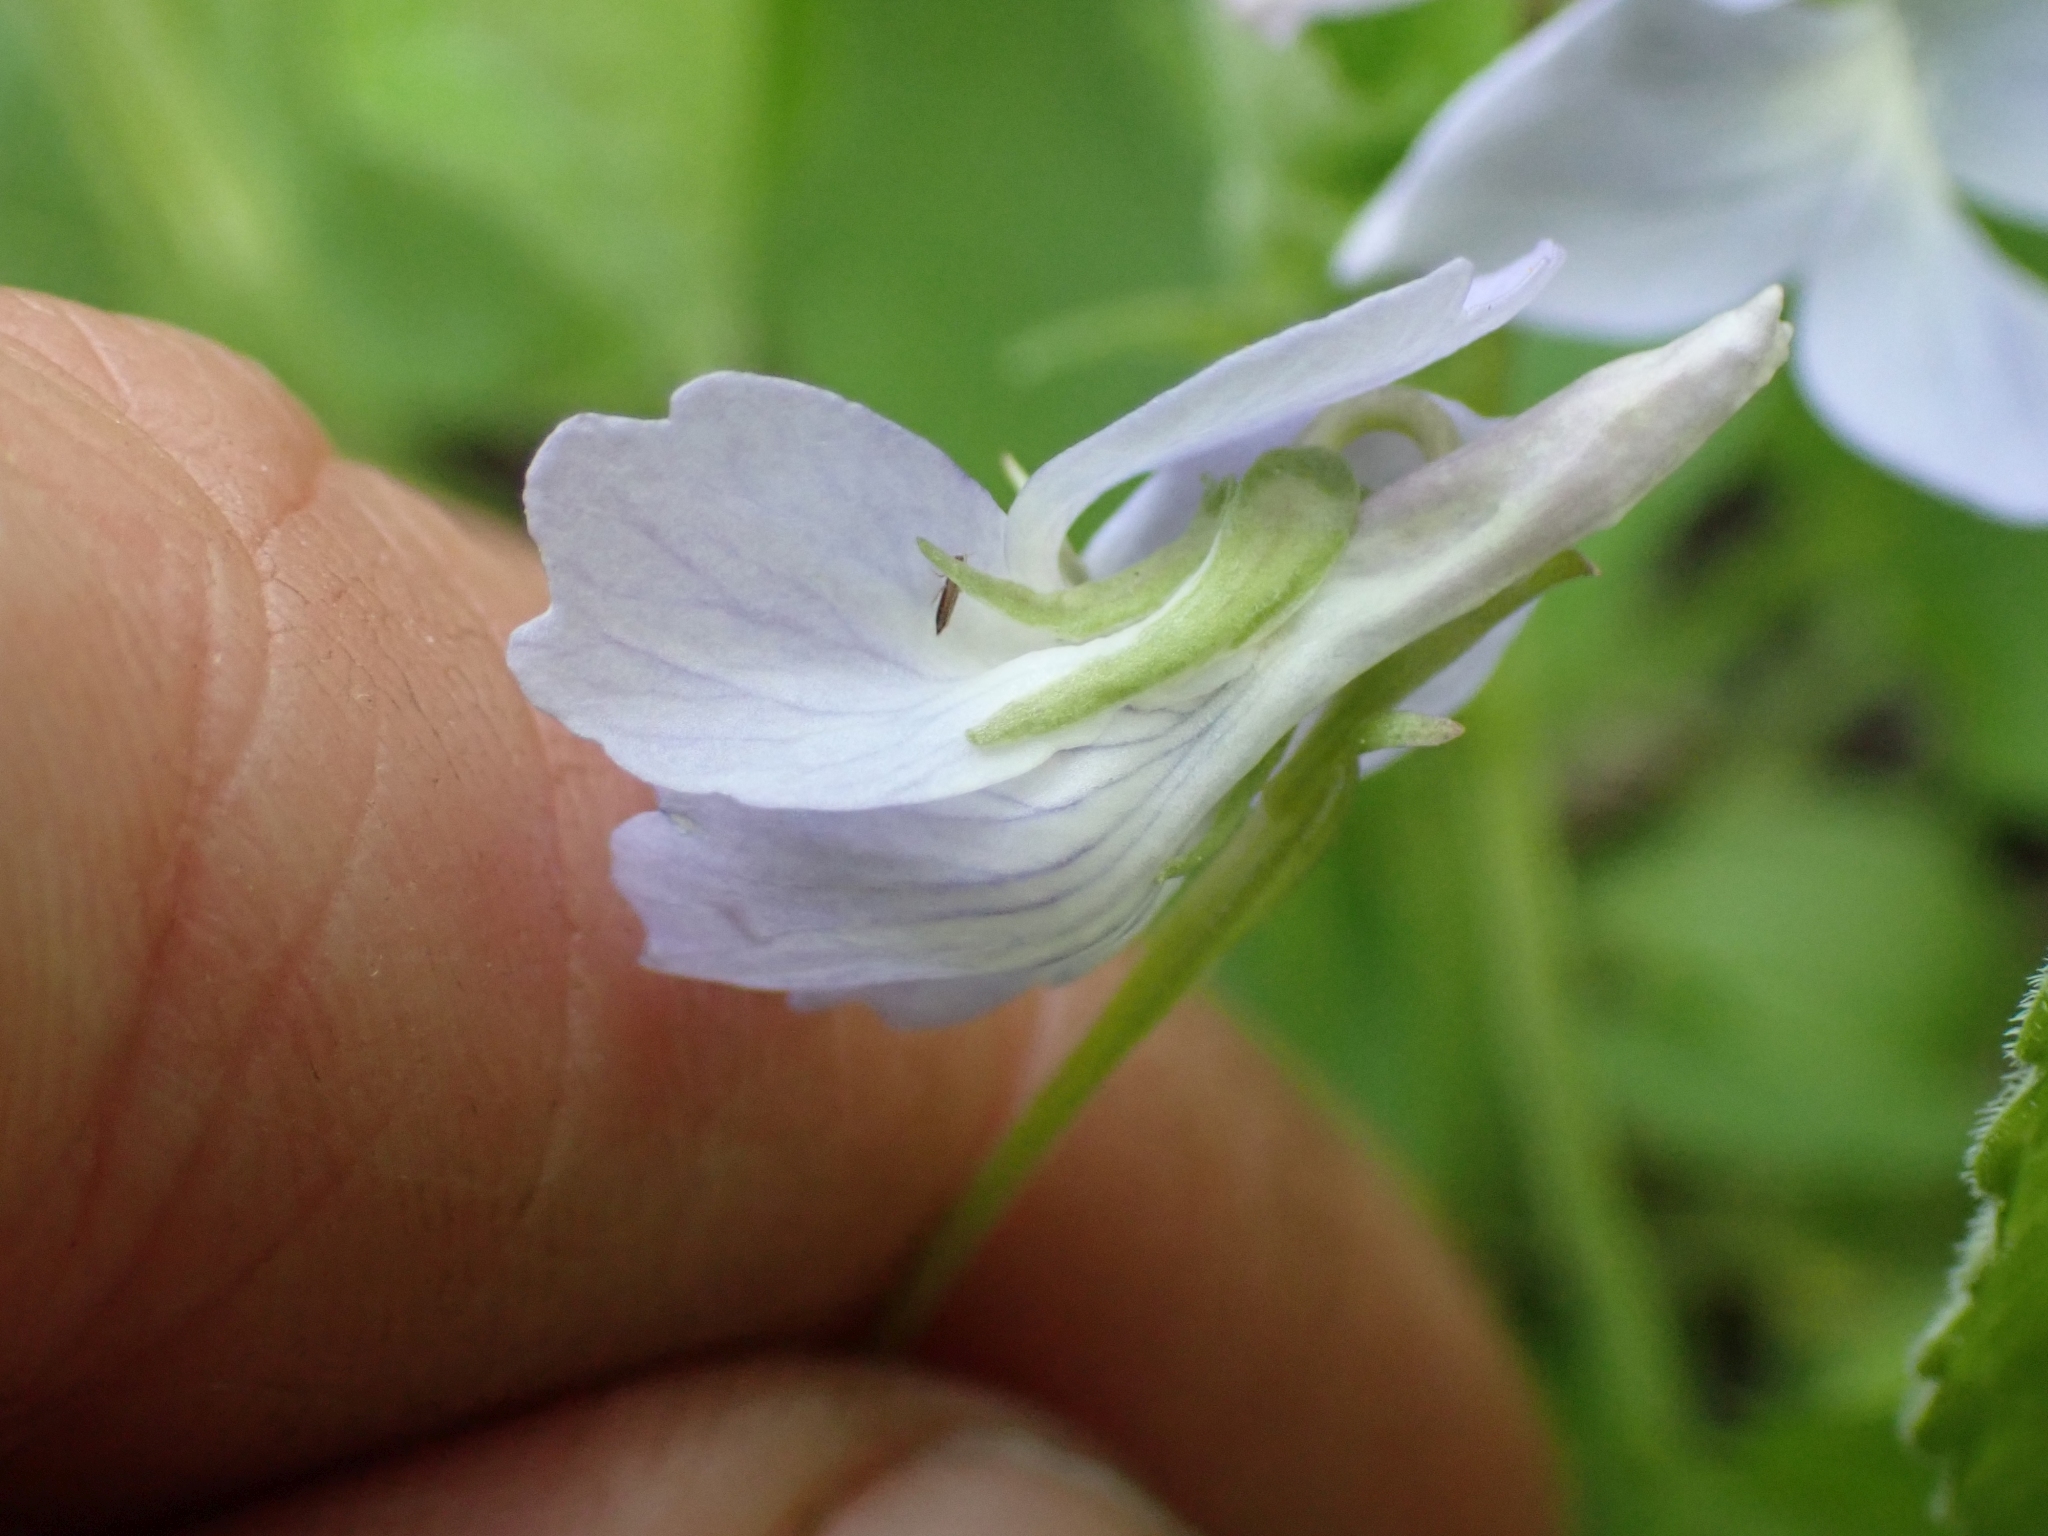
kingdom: Plantae
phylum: Tracheophyta
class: Magnoliopsida
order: Malpighiales
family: Violaceae
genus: Viola
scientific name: Viola adunca
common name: Sand violet
